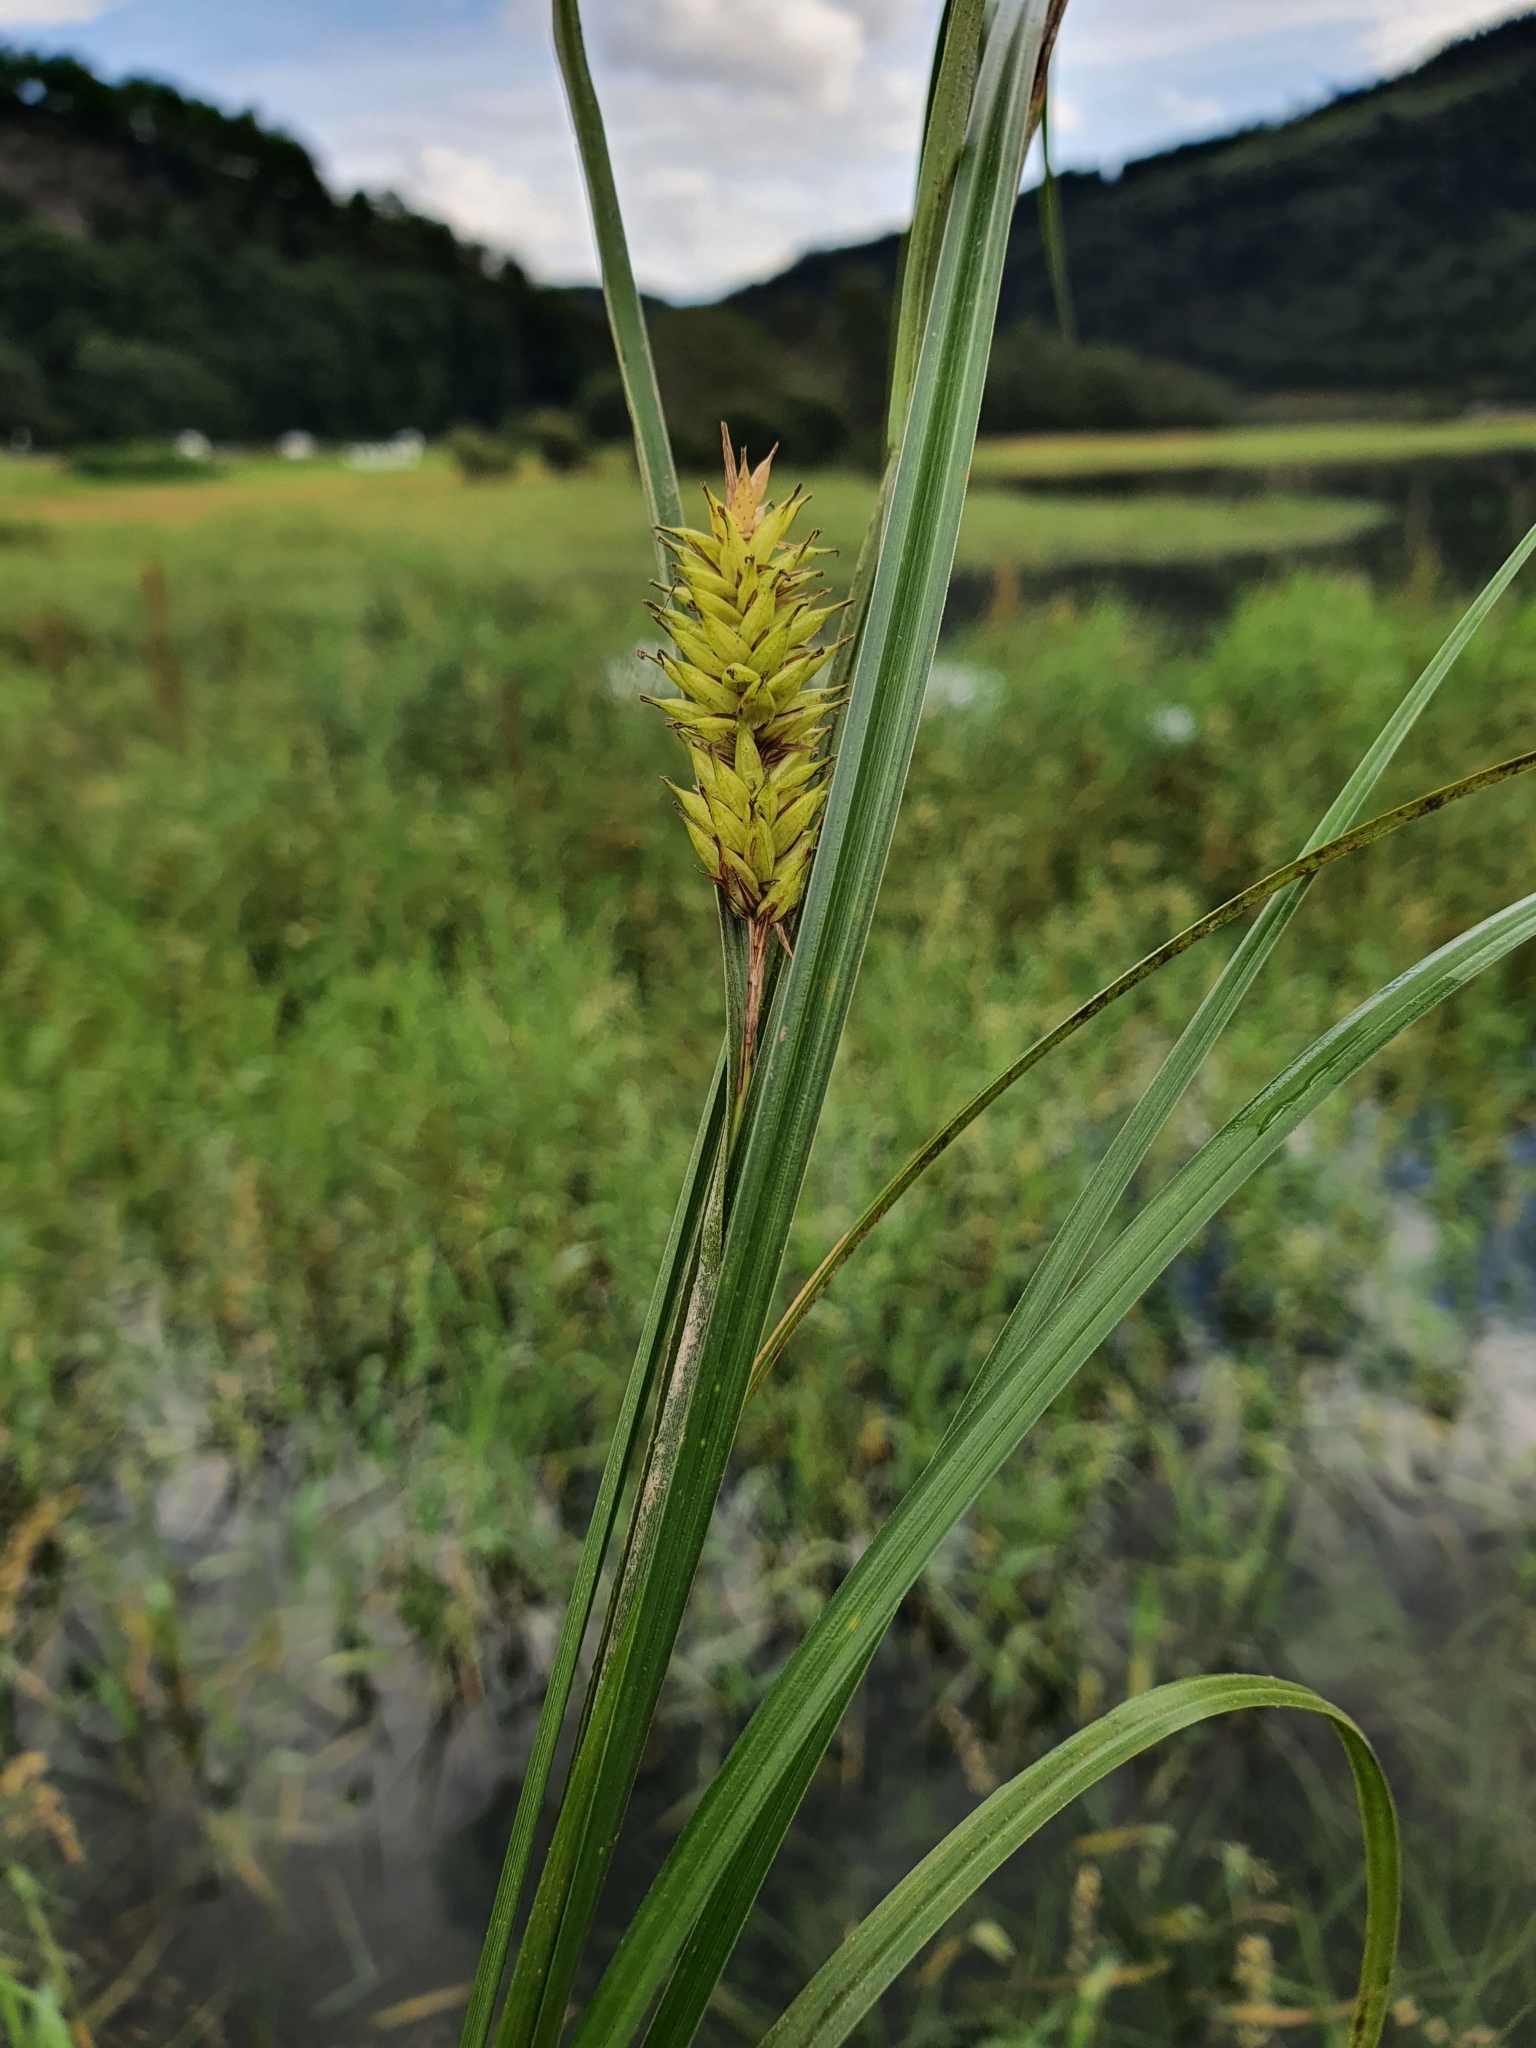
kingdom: Plantae
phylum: Tracheophyta
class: Liliopsida
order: Poales
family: Cyperaceae
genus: Carex
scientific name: Carex vesicaria
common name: Bladder-sedge
